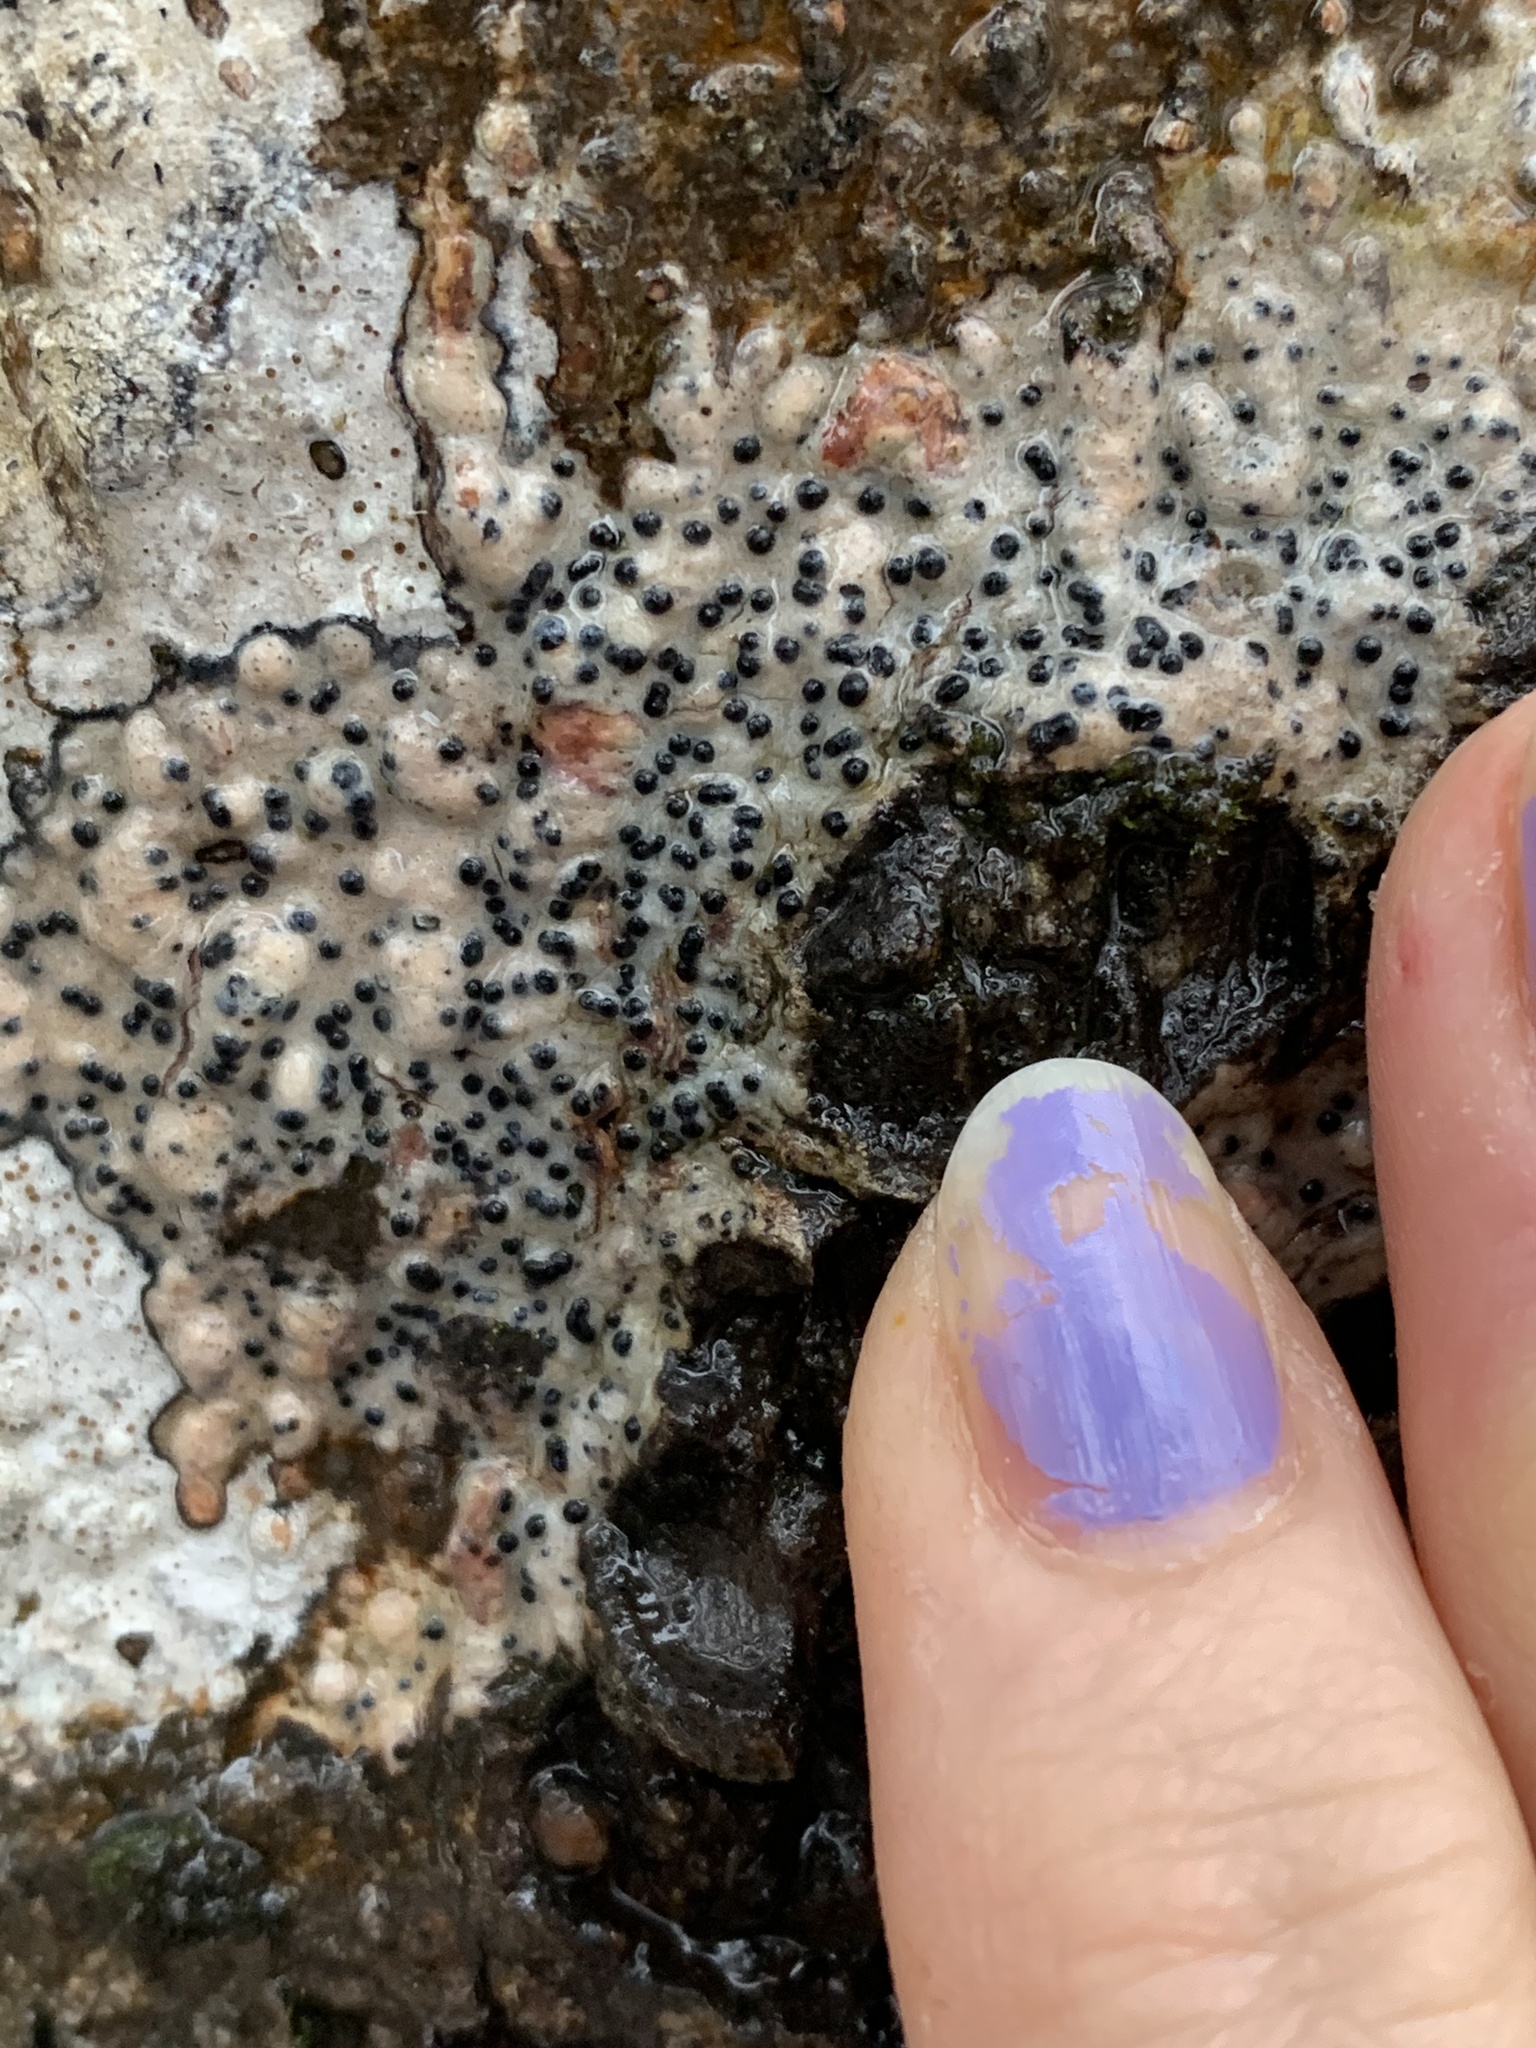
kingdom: Fungi
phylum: Ascomycota
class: Eurotiomycetes
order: Pyrenulales
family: Pyrenulaceae
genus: Pyrenula
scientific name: Pyrenula pseudobufonia
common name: Easter pox lichen
